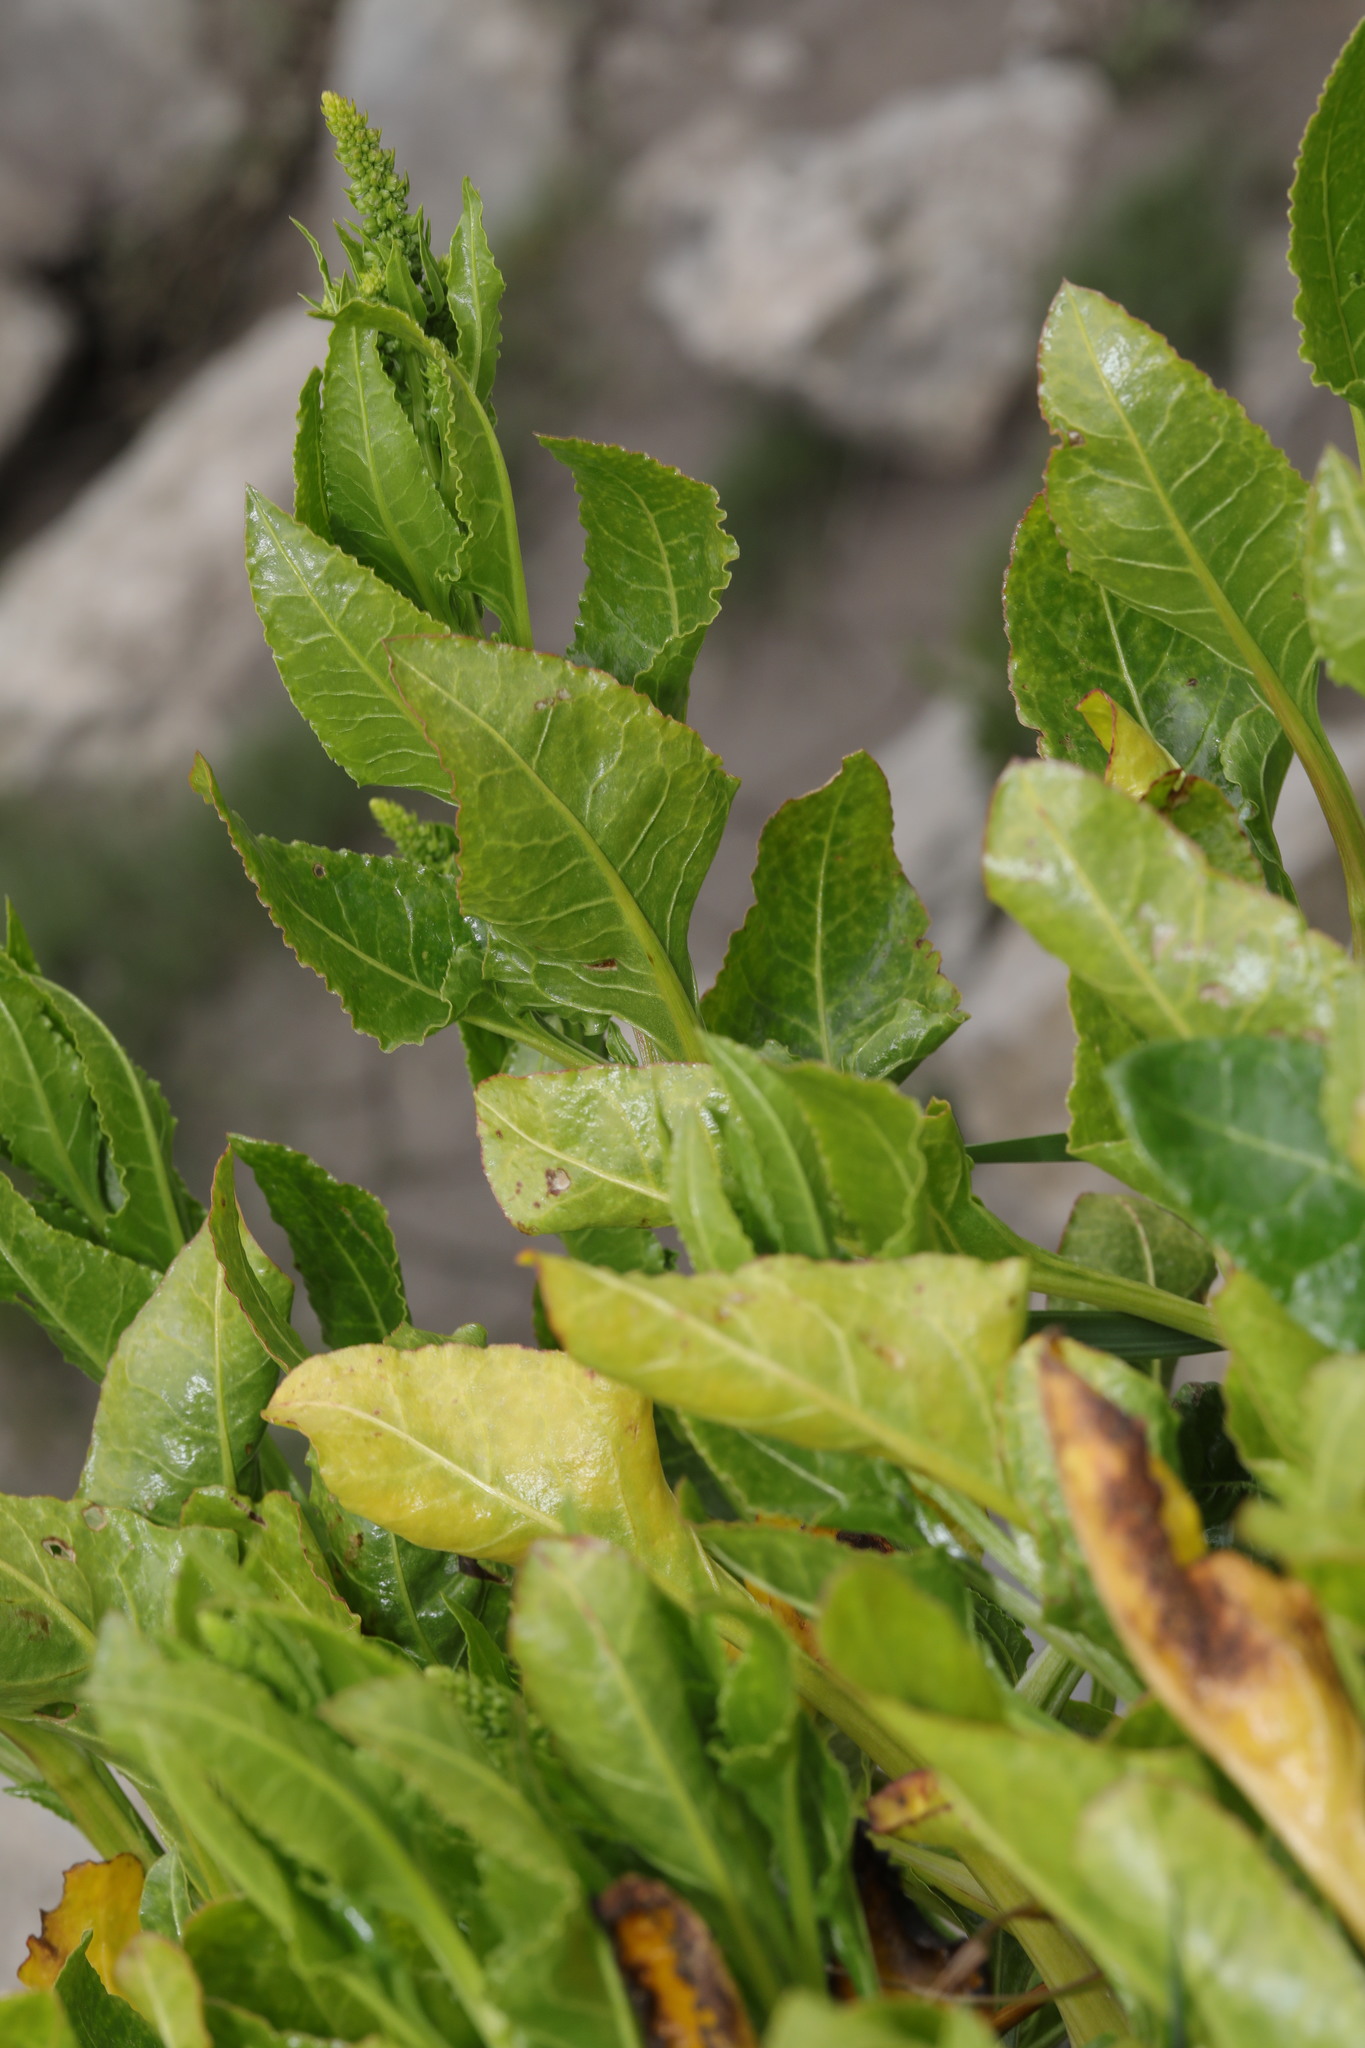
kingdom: Plantae
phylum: Tracheophyta
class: Magnoliopsida
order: Caryophyllales
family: Amaranthaceae
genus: Beta
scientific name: Beta vulgaris
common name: Beet
